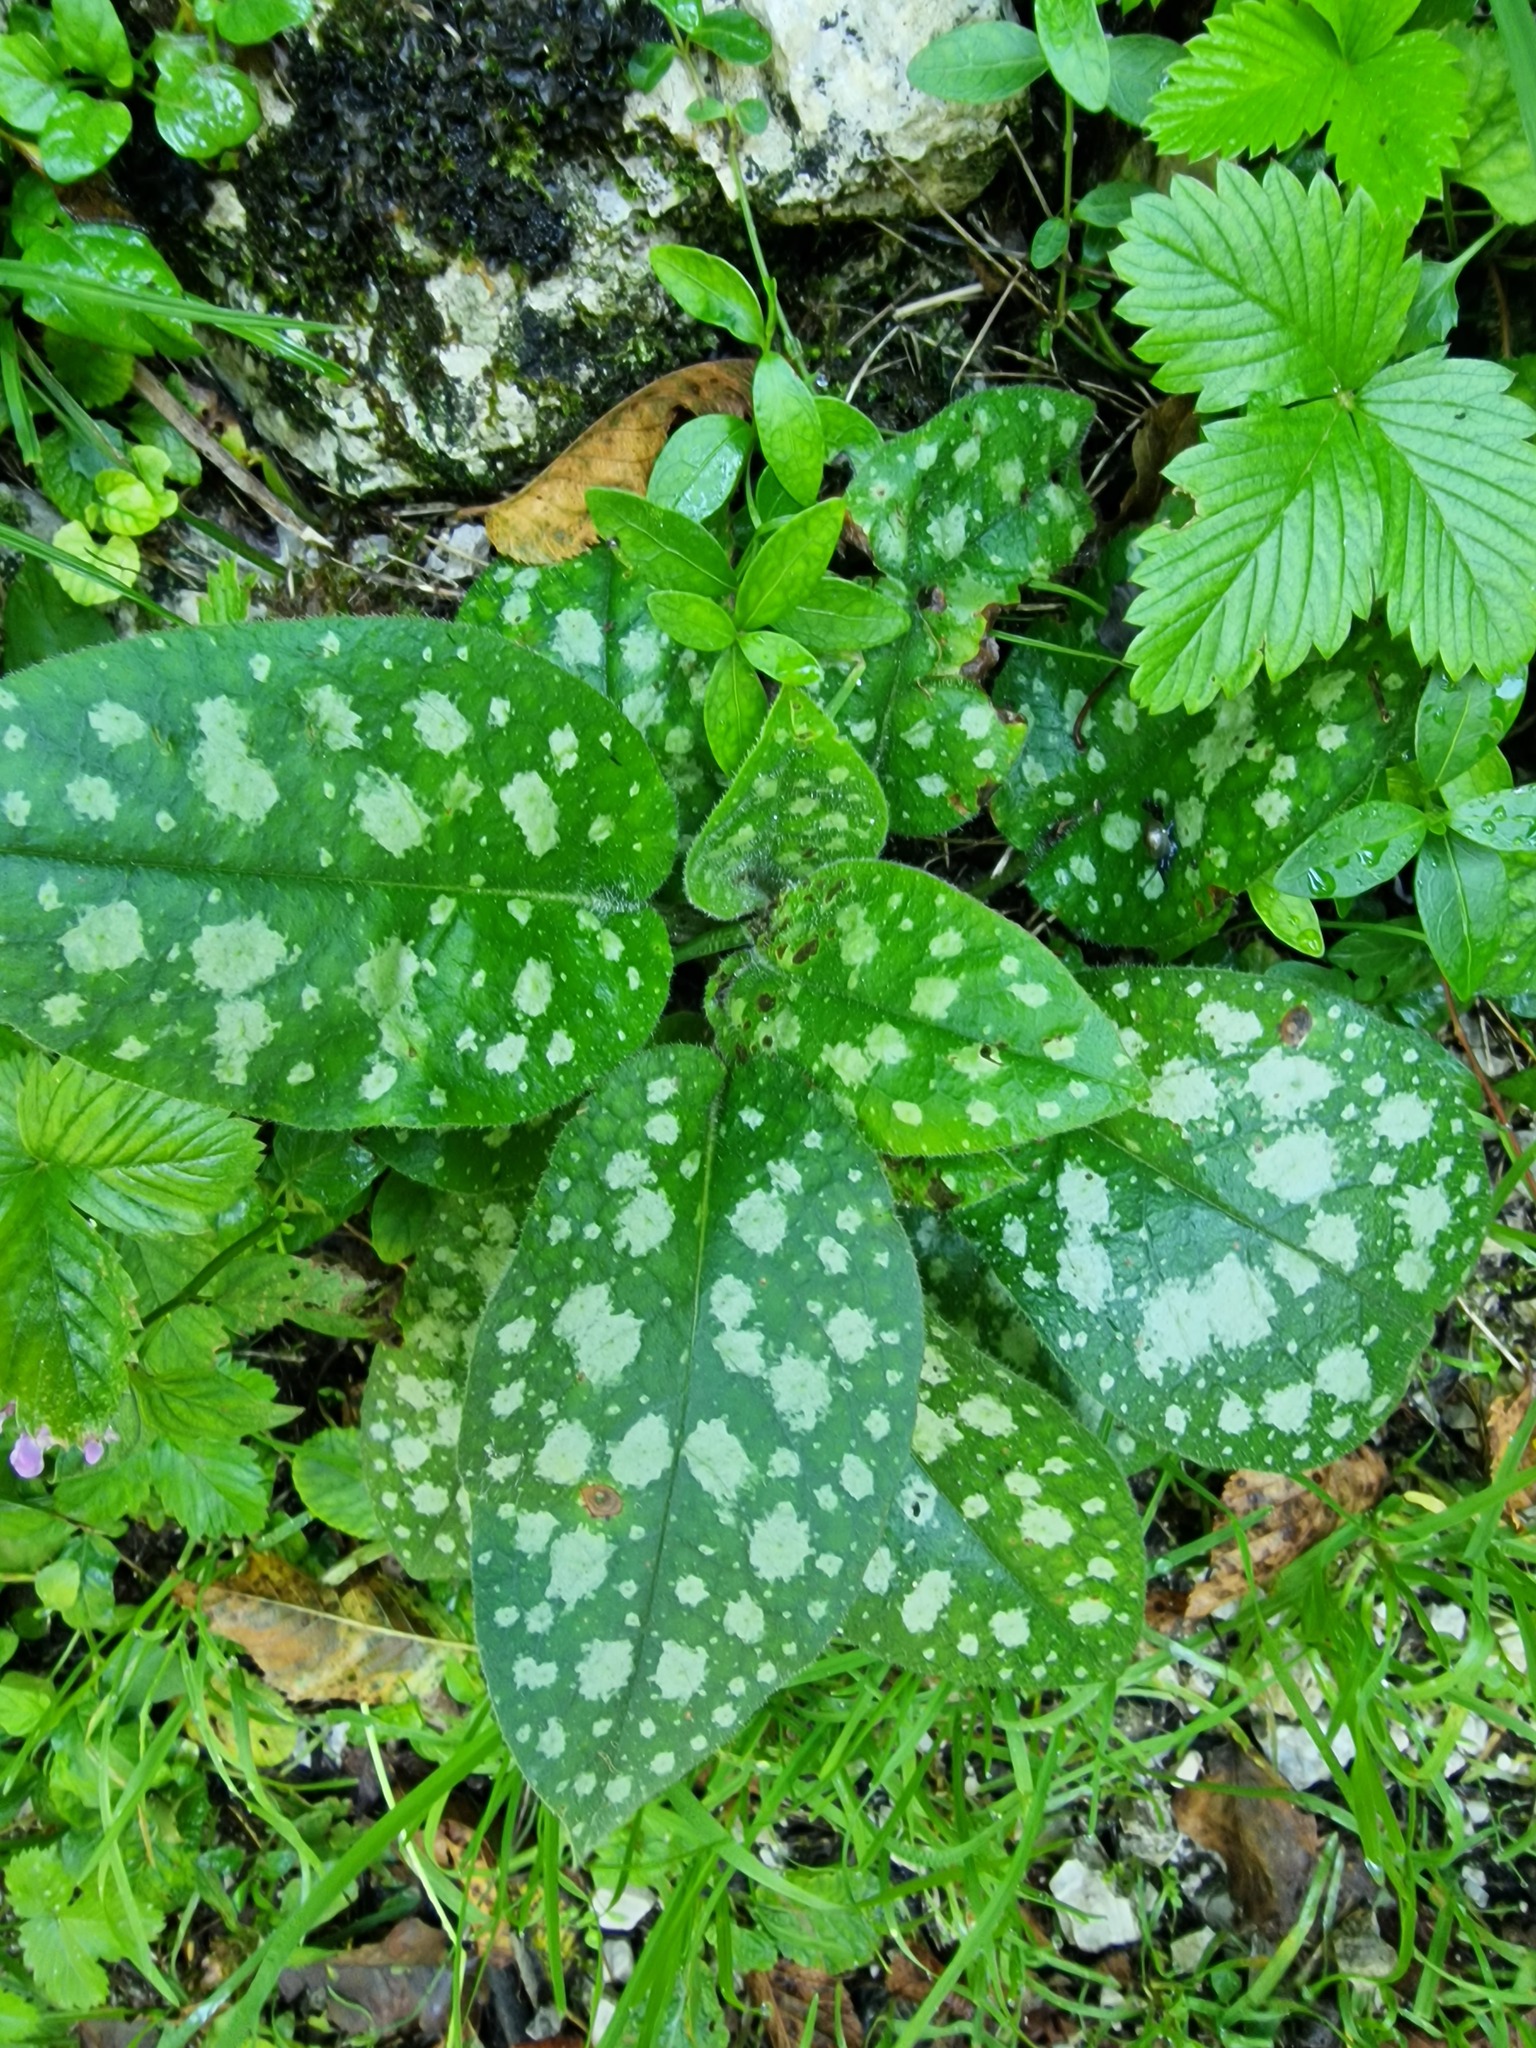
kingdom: Plantae
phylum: Tracheophyta
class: Magnoliopsida
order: Boraginales
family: Boraginaceae
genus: Pulmonaria
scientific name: Pulmonaria officinalis
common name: Lungwort
